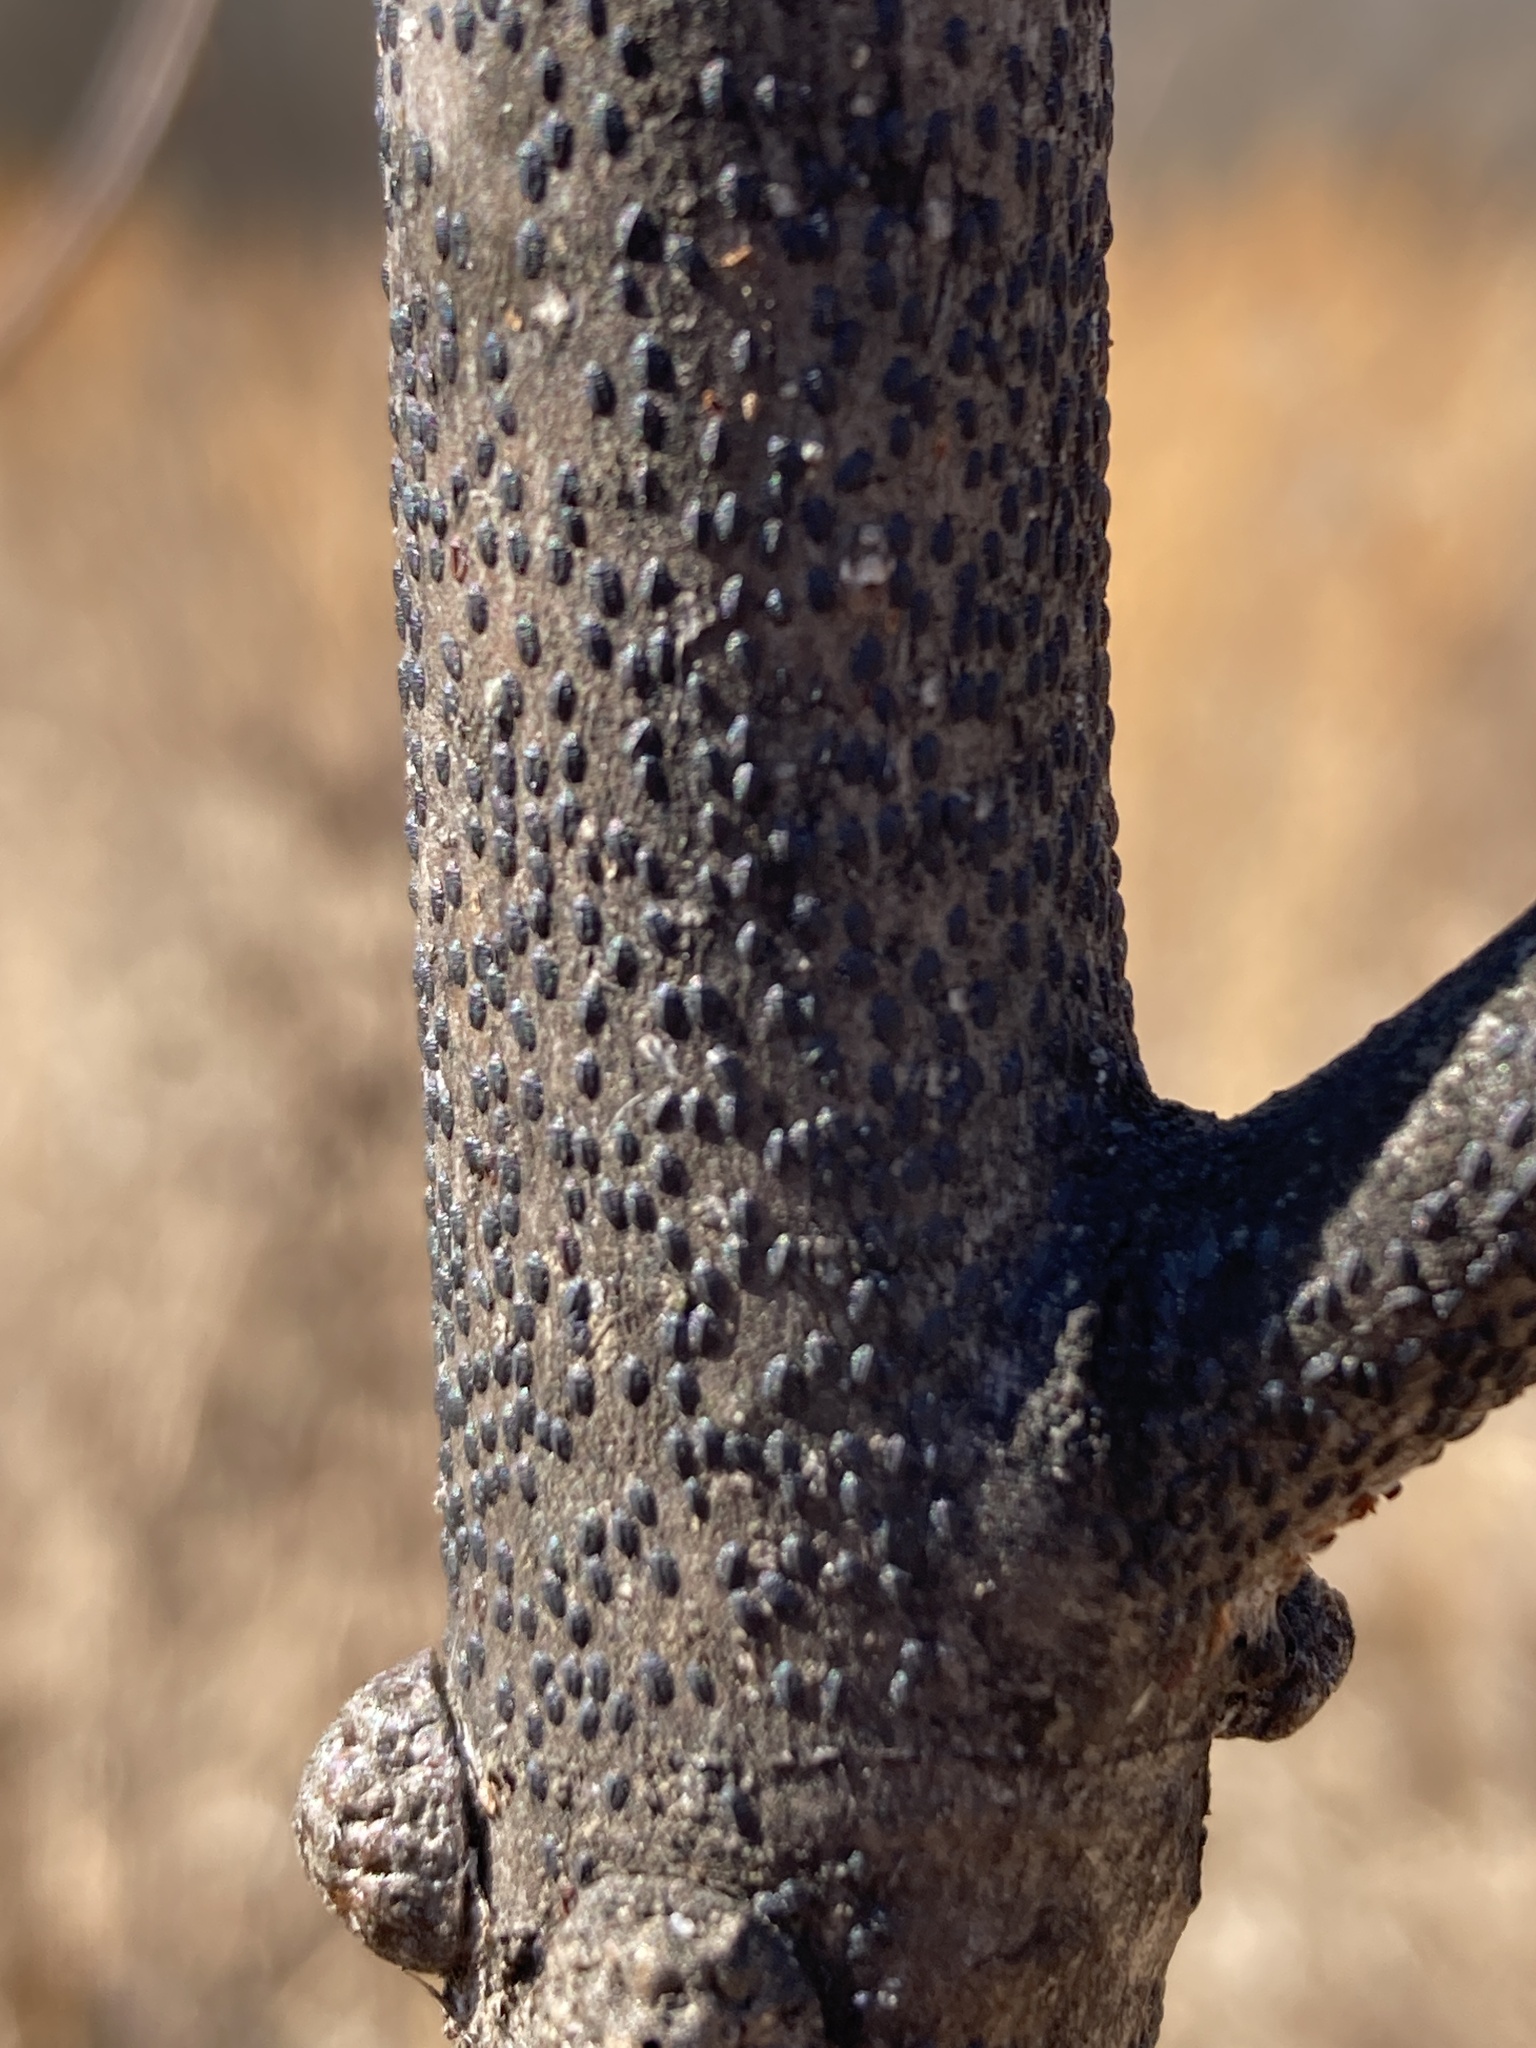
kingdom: Animalia
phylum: Arthropoda
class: Insecta
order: Hemiptera
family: Coccidae
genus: Toumeyella
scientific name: Toumeyella liriodendri
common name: Tuliptree scale
